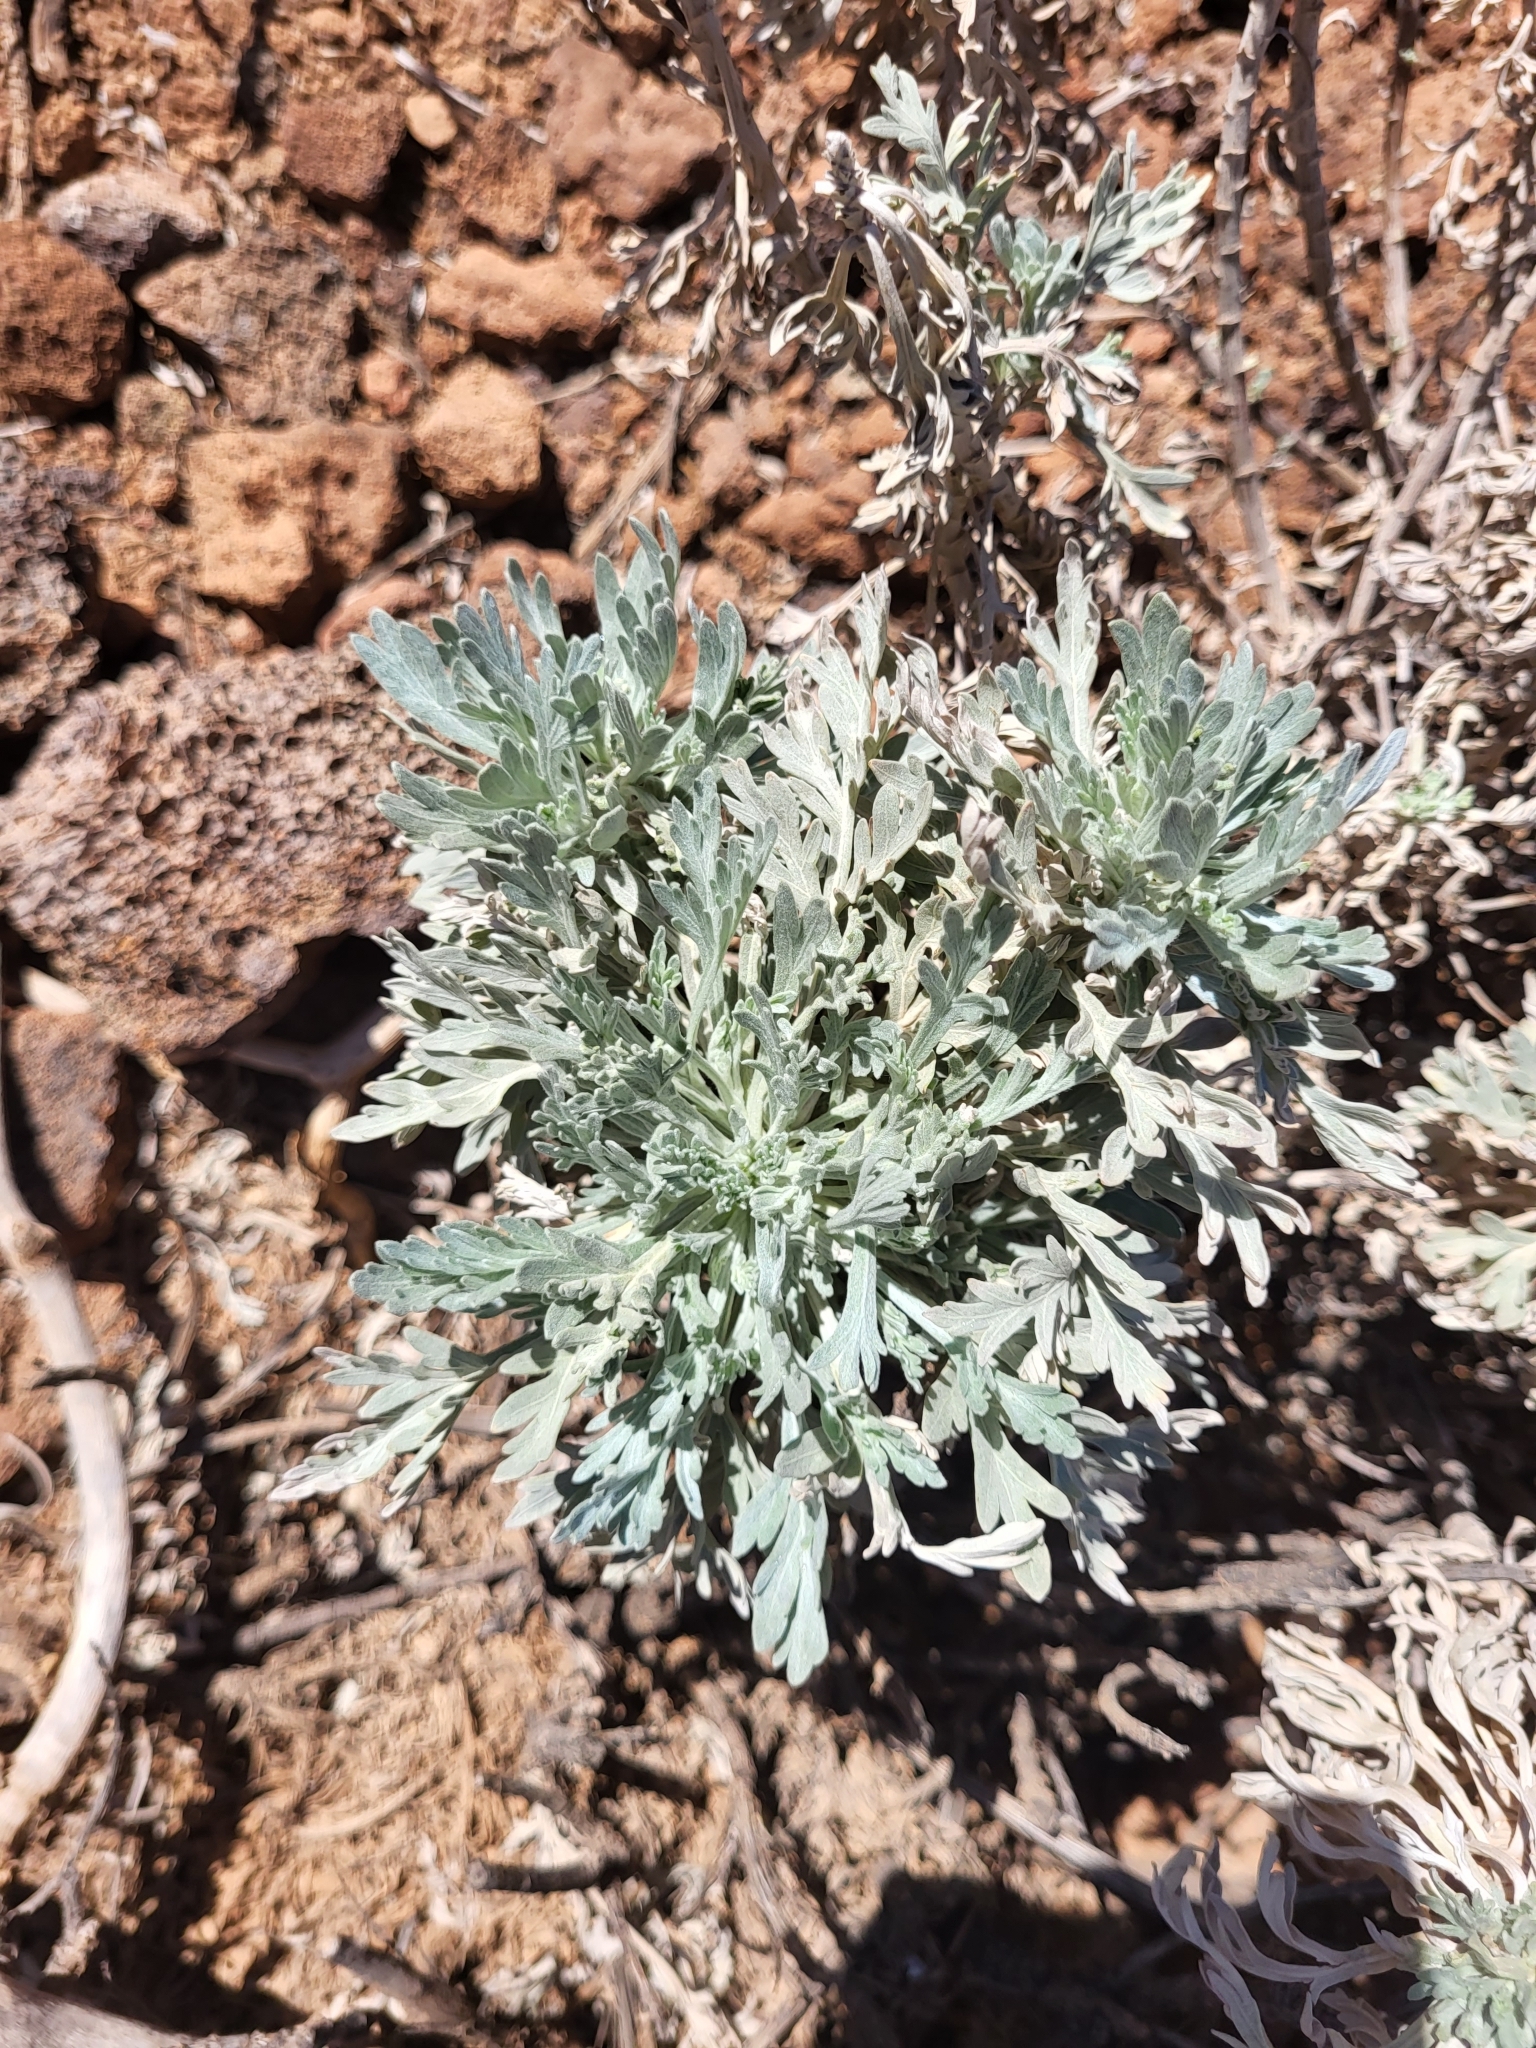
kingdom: Plantae
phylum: Tracheophyta
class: Magnoliopsida
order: Asterales
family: Asteraceae
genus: Artemisia
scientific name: Artemisia gorgonum
